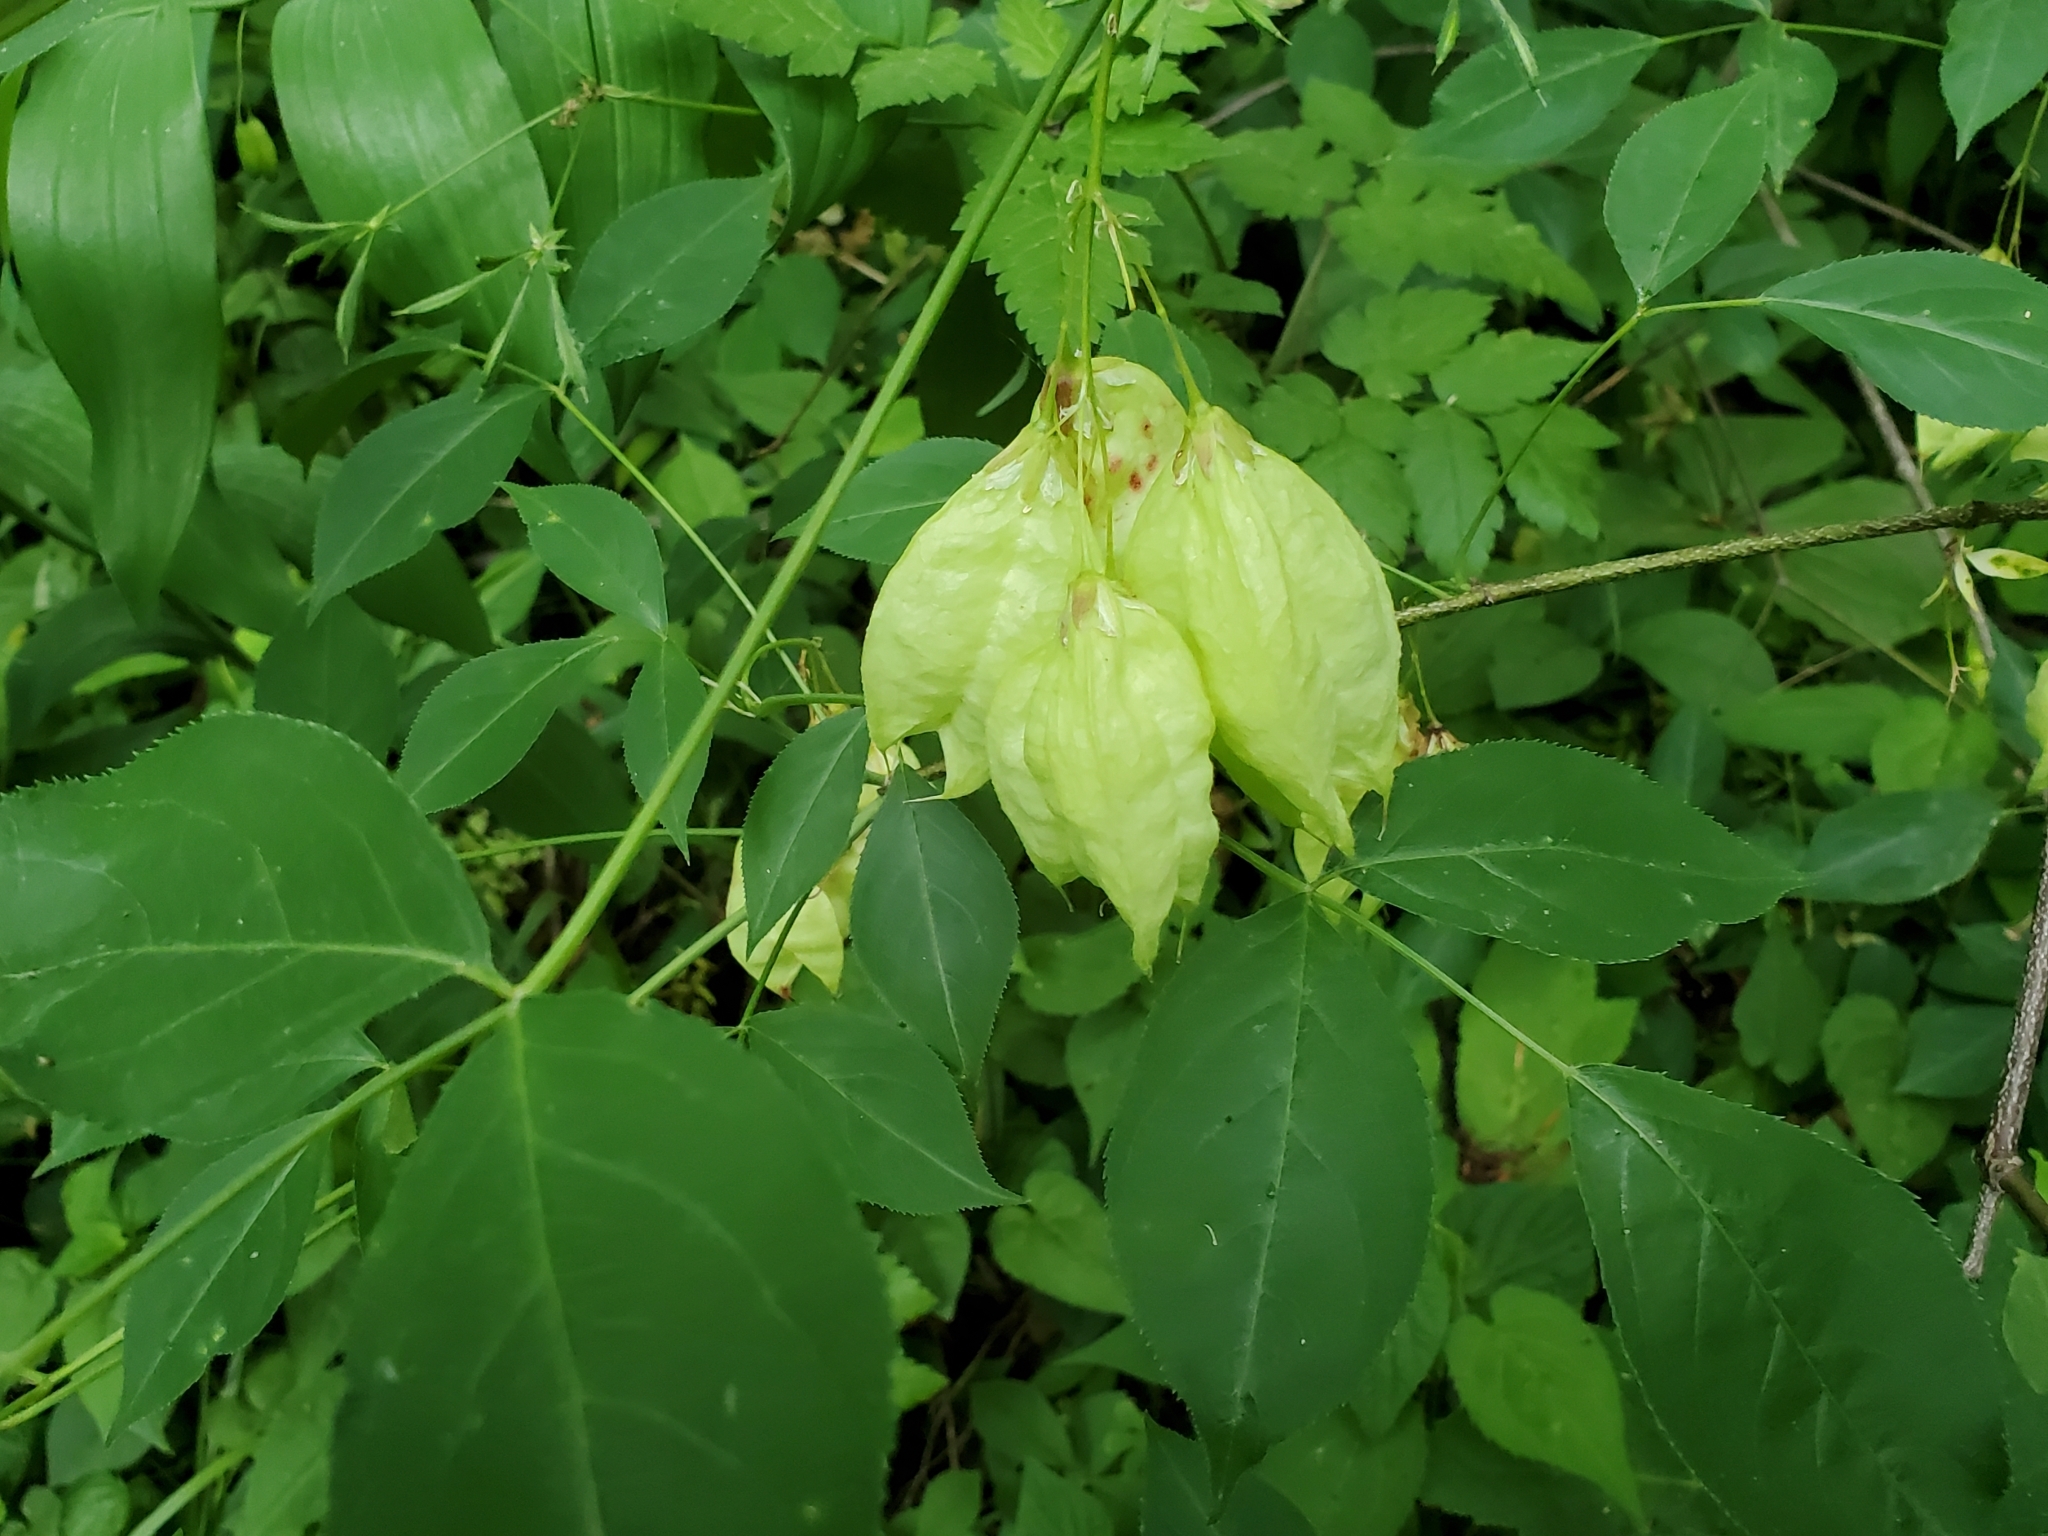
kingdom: Plantae
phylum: Tracheophyta
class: Magnoliopsida
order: Crossosomatales
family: Staphyleaceae
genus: Staphylea
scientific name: Staphylea trifolia
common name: American bladdernut
